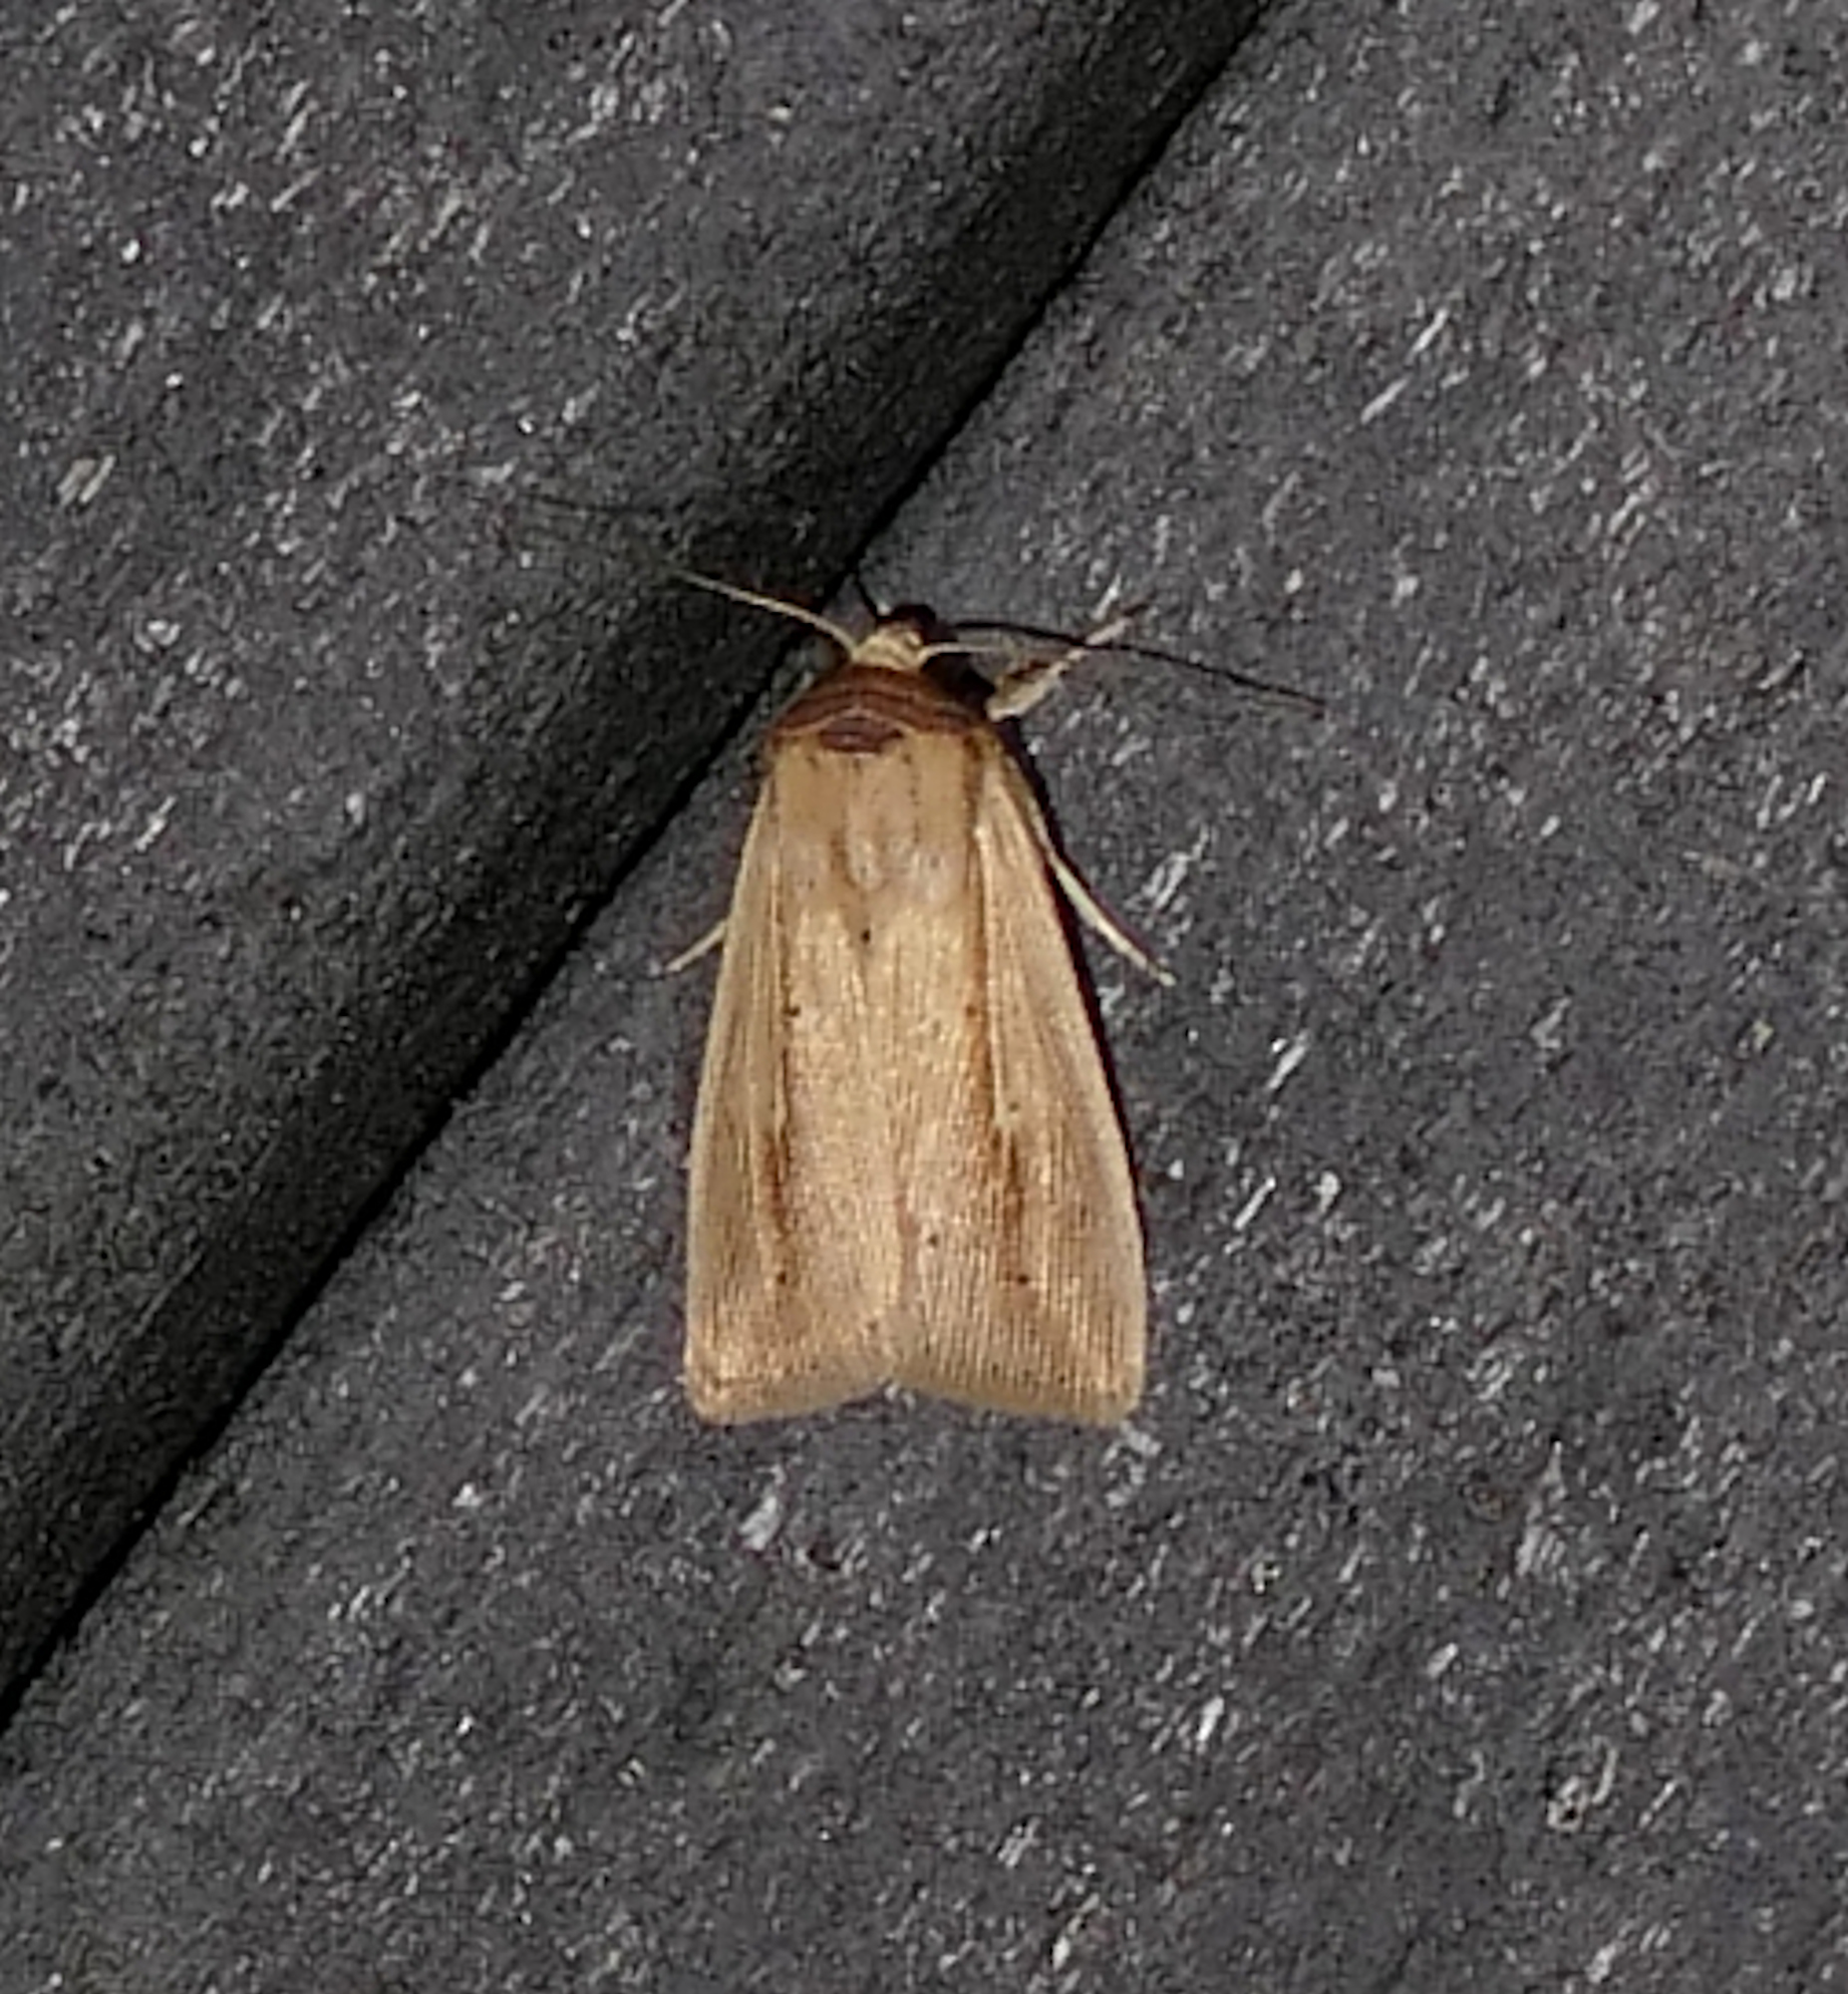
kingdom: Animalia
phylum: Arthropoda
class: Insecta
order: Lepidoptera
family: Noctuidae
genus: Leucania
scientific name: Leucania adjuta
